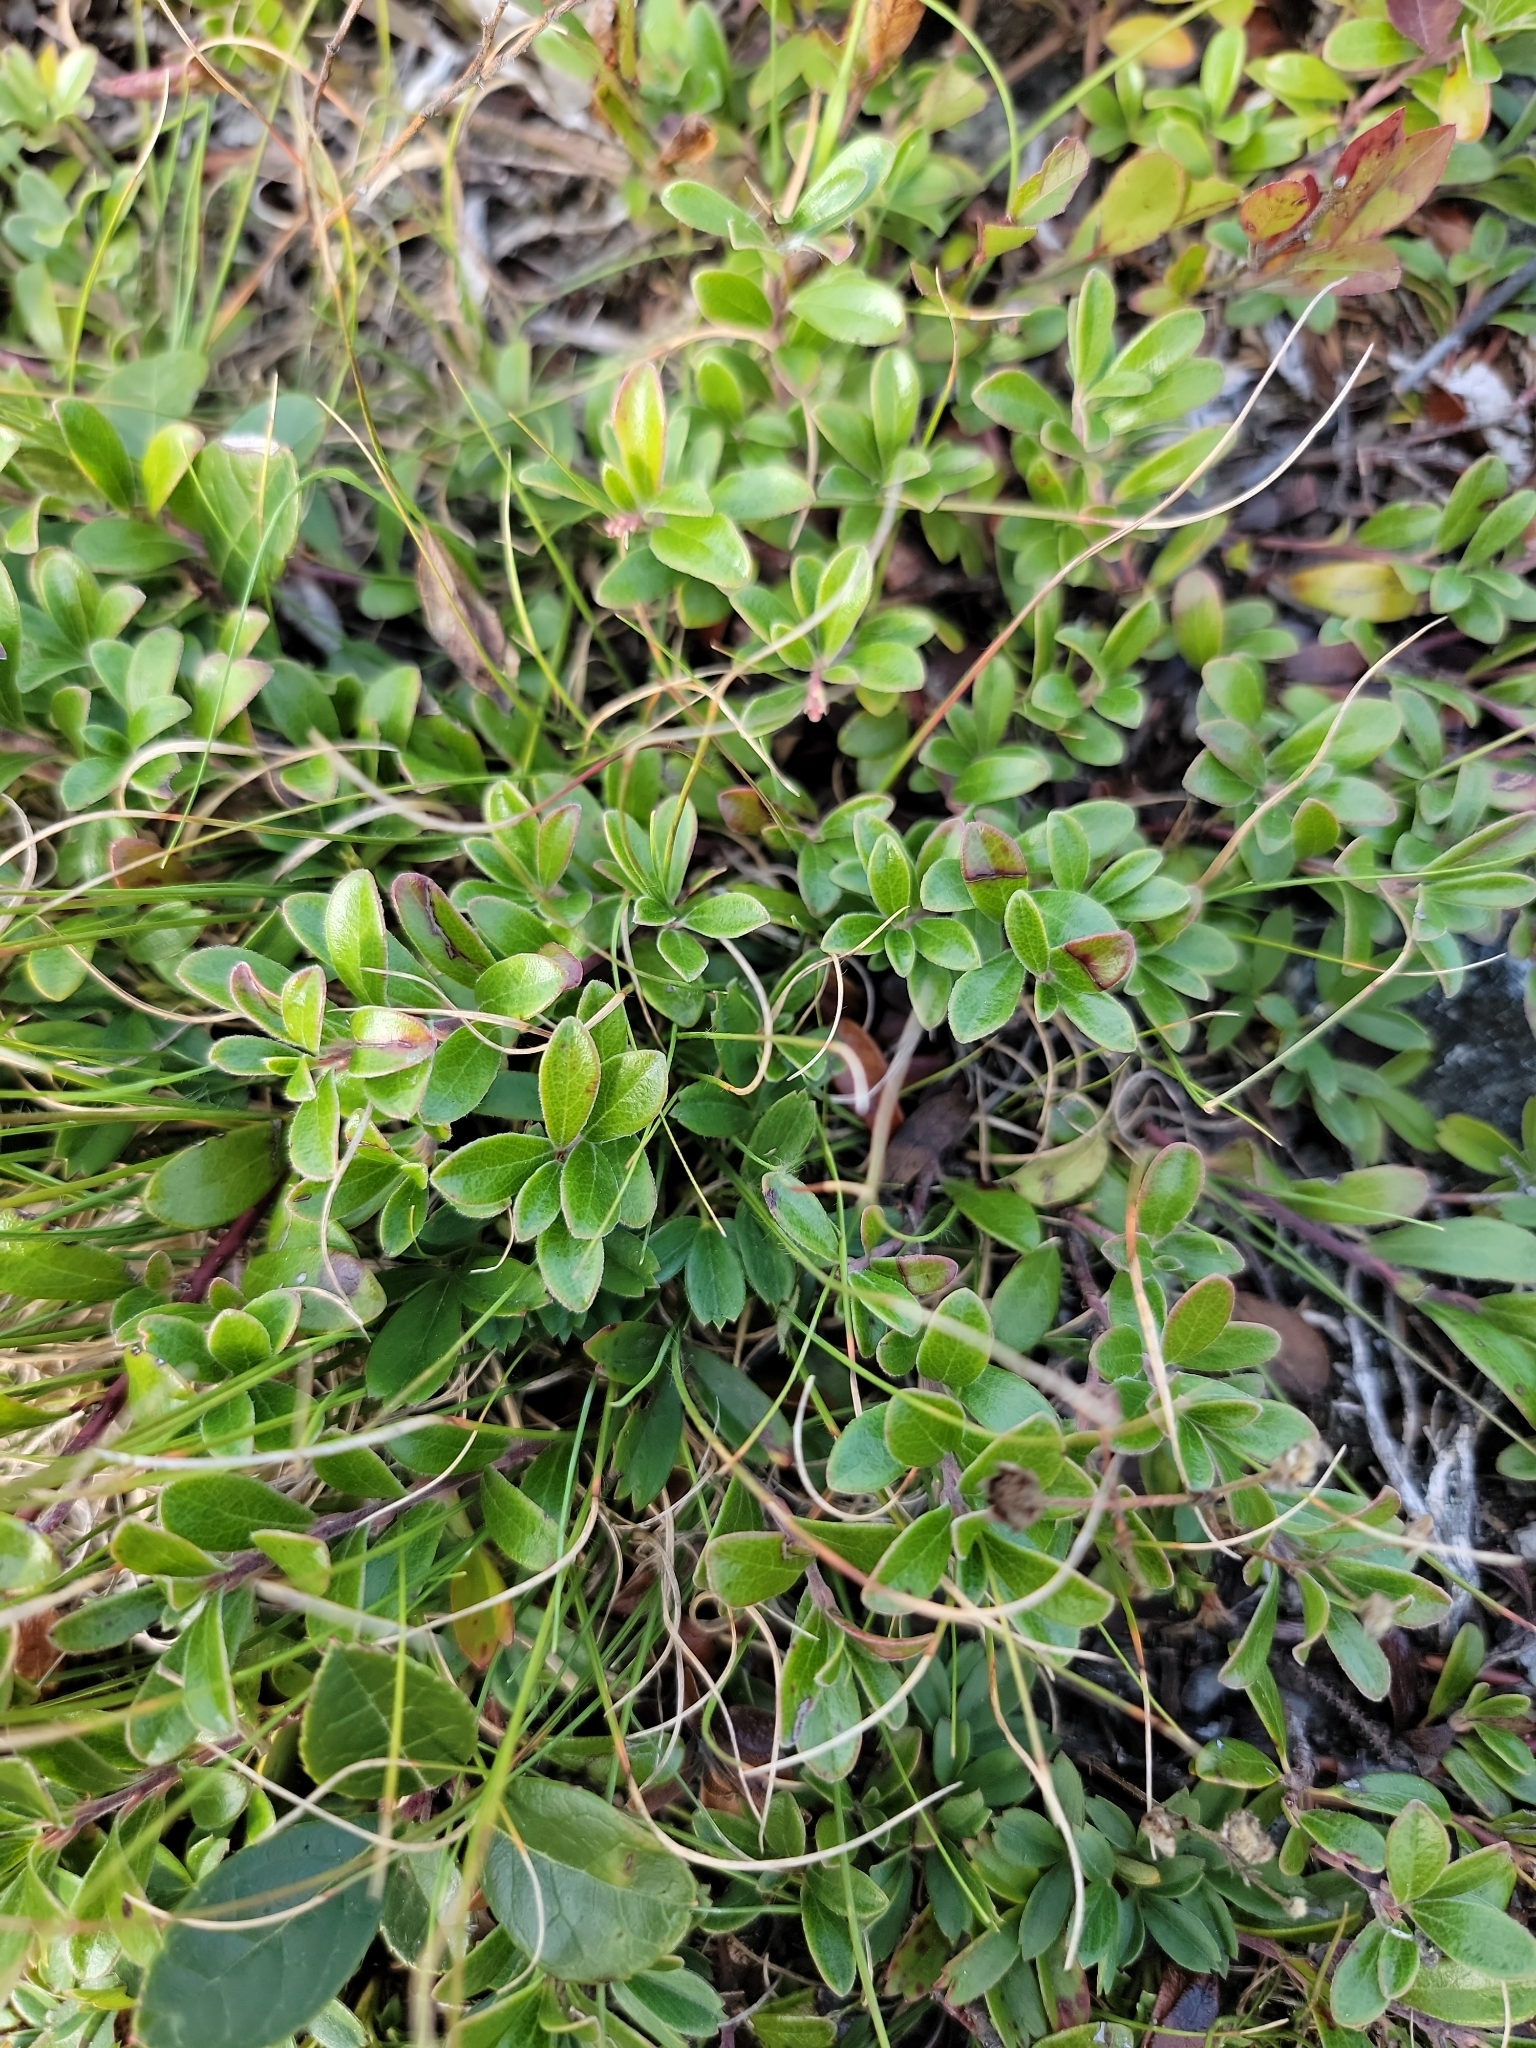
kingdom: Plantae
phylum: Tracheophyta
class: Magnoliopsida
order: Ericales
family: Ericaceae
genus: Arctostaphylos
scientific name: Arctostaphylos uva-ursi
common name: Bearberry
